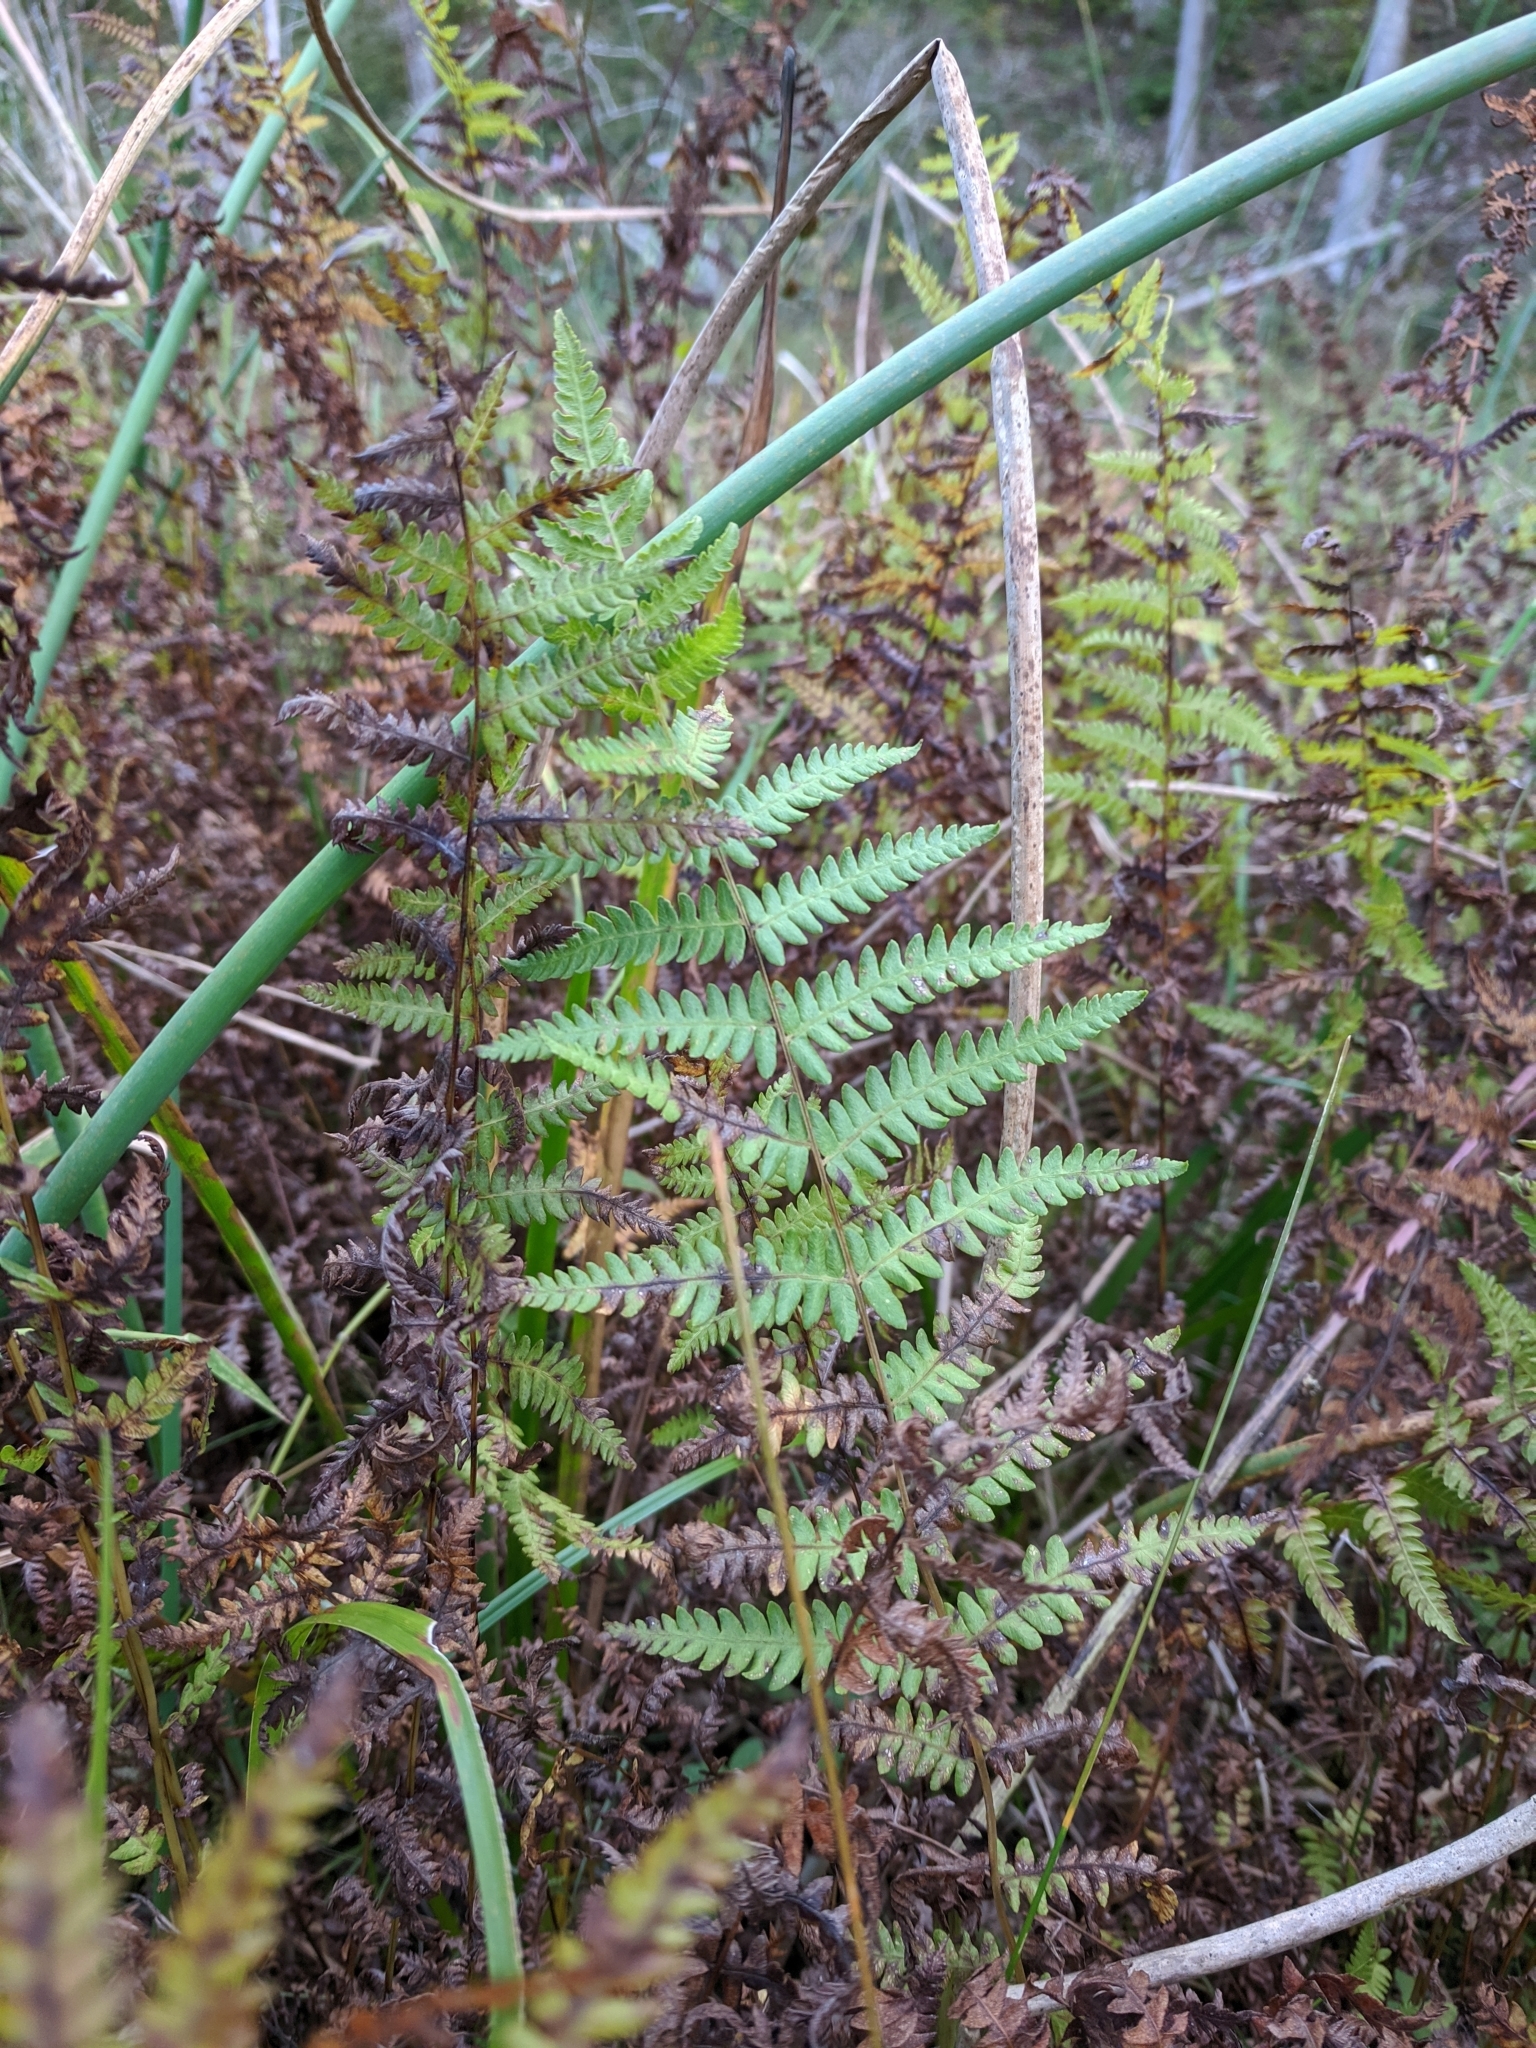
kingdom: Plantae
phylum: Tracheophyta
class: Polypodiopsida
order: Polypodiales
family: Thelypteridaceae
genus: Thelypteris
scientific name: Thelypteris palustris
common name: Marsh fern
